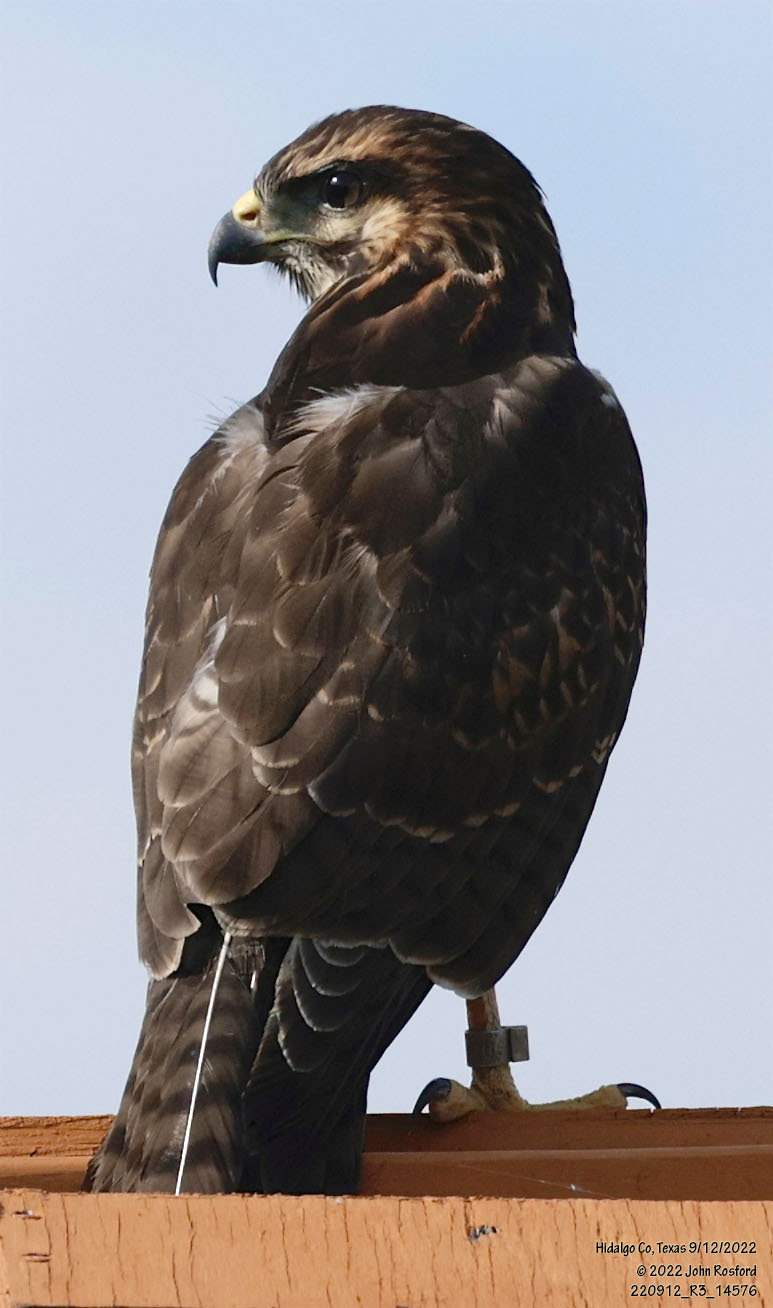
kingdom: Animalia
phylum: Chordata
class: Aves
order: Accipitriformes
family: Accipitridae
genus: Buteo
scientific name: Buteo nitidus
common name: Grey-lined hawk
